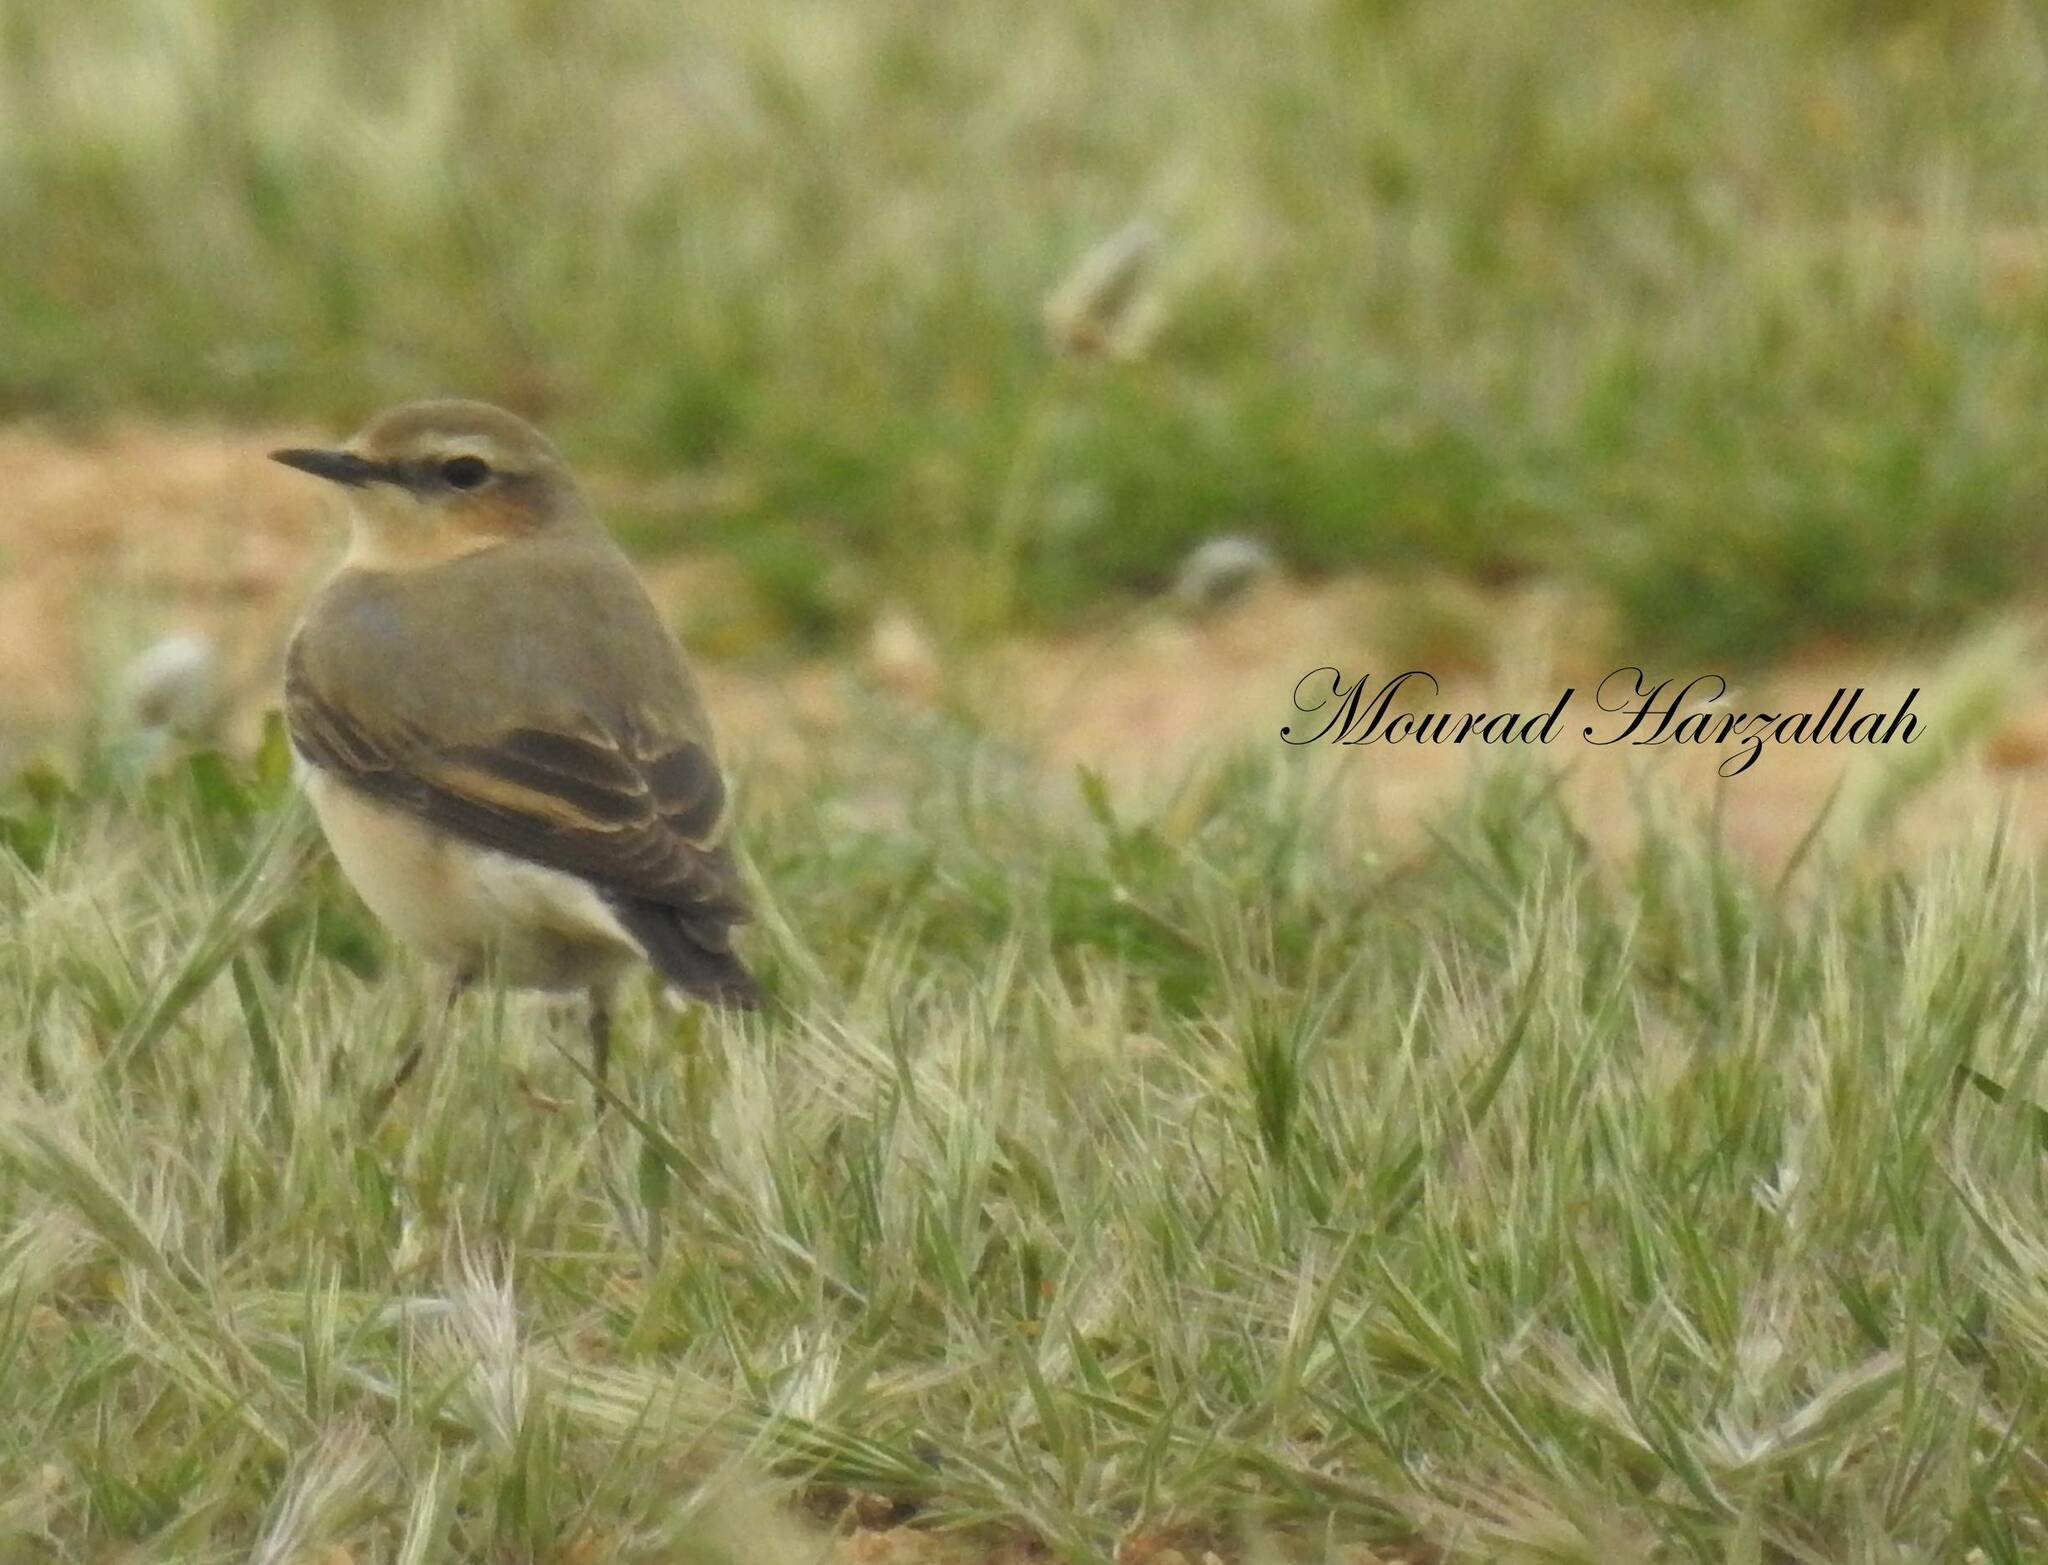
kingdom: Animalia
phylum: Chordata
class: Aves
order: Passeriformes
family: Muscicapidae
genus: Oenanthe
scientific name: Oenanthe oenanthe
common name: Northern wheatear
